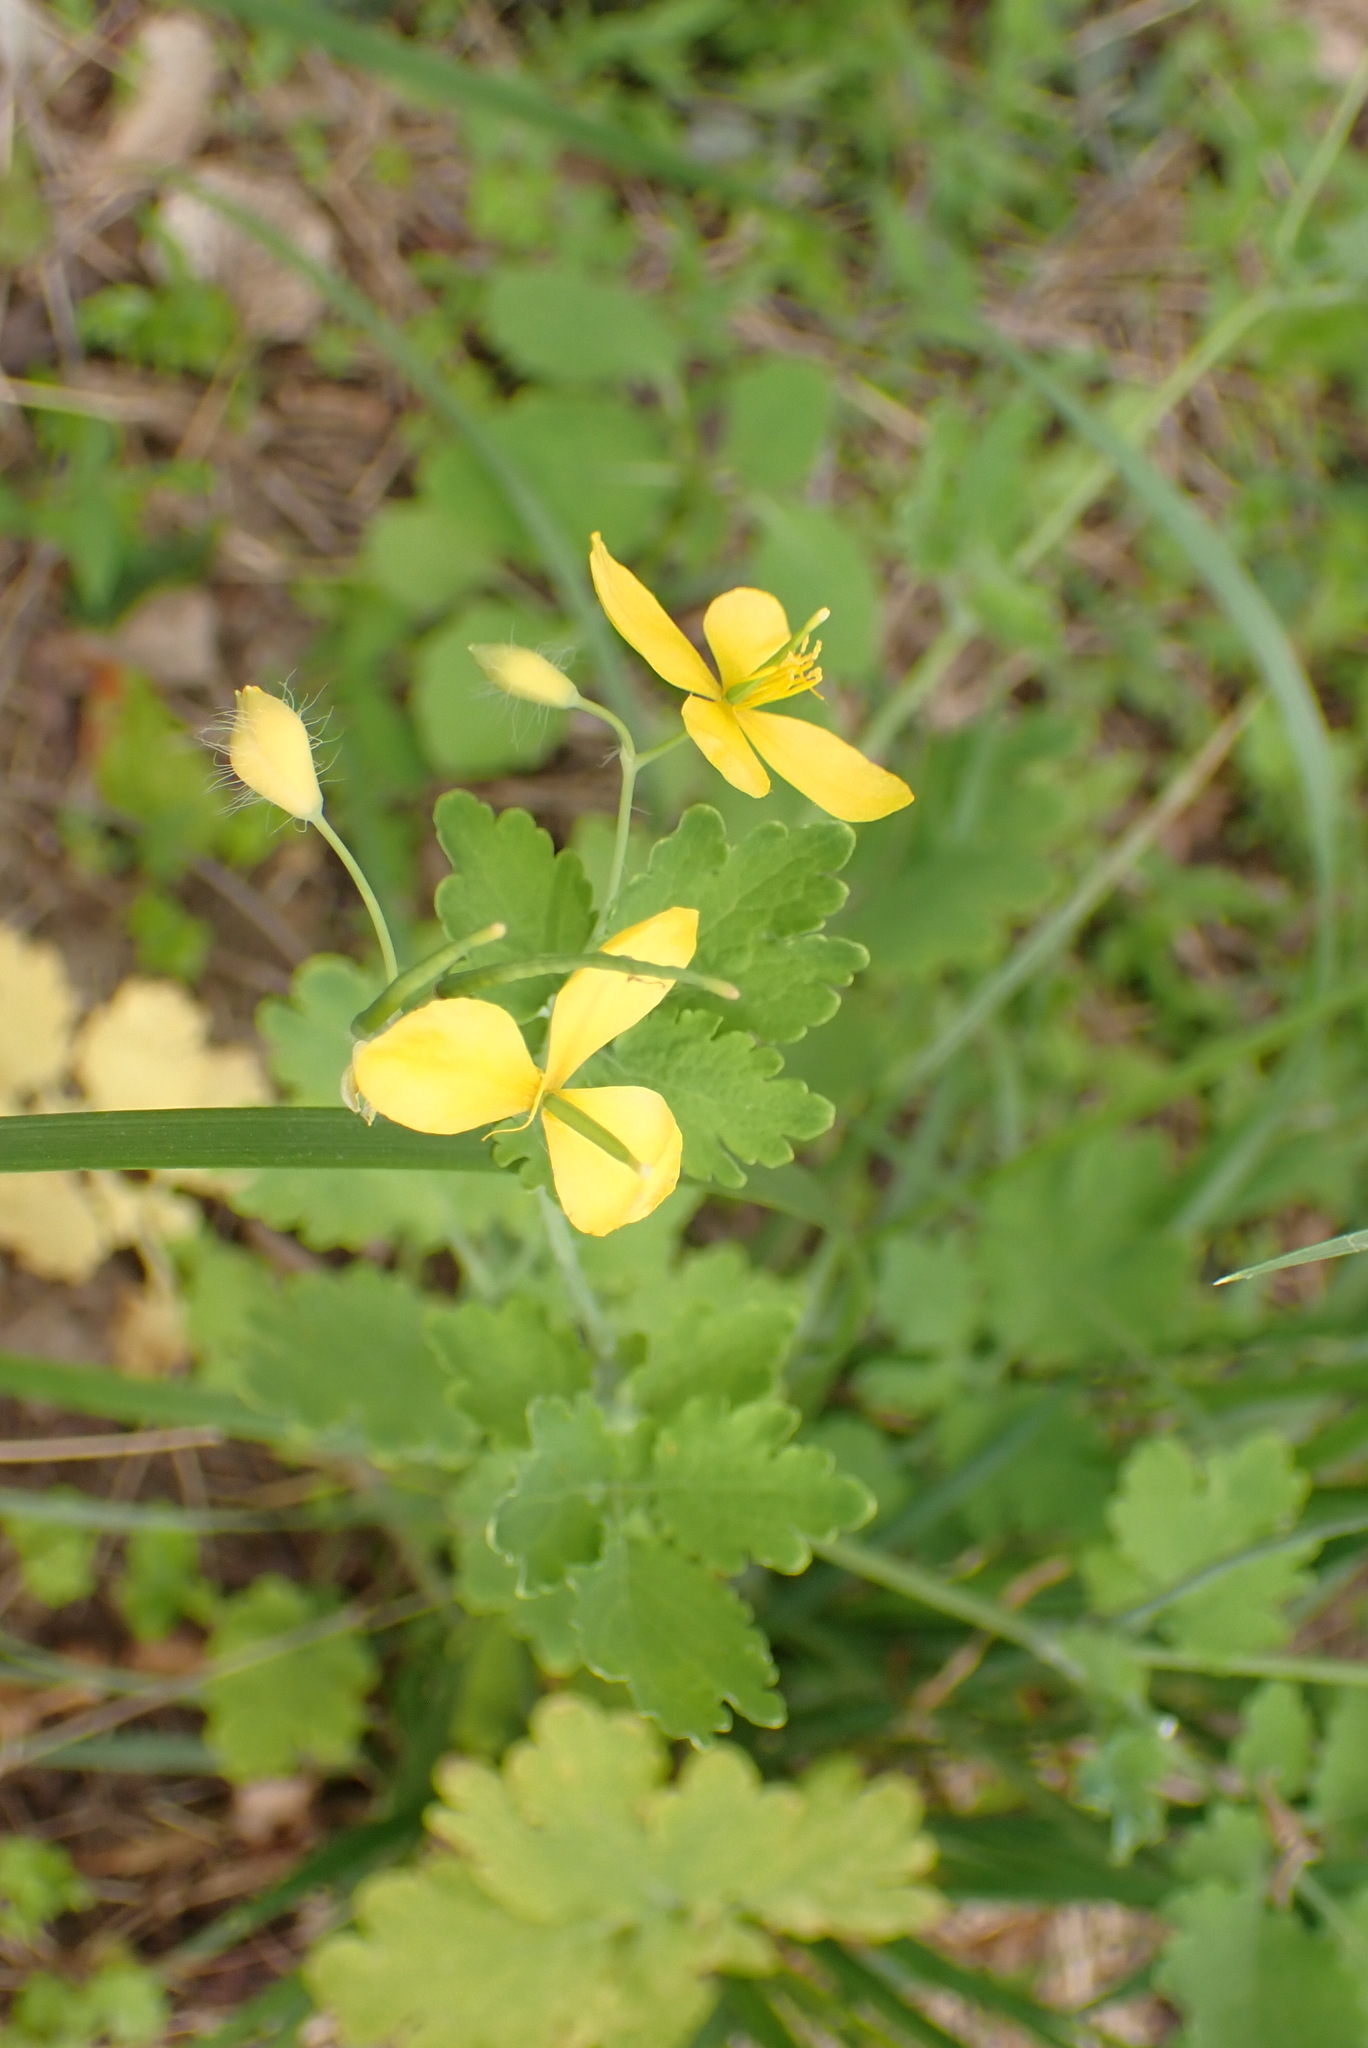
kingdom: Plantae
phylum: Tracheophyta
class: Magnoliopsida
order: Ranunculales
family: Papaveraceae
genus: Chelidonium
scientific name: Chelidonium majus
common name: Greater celandine
